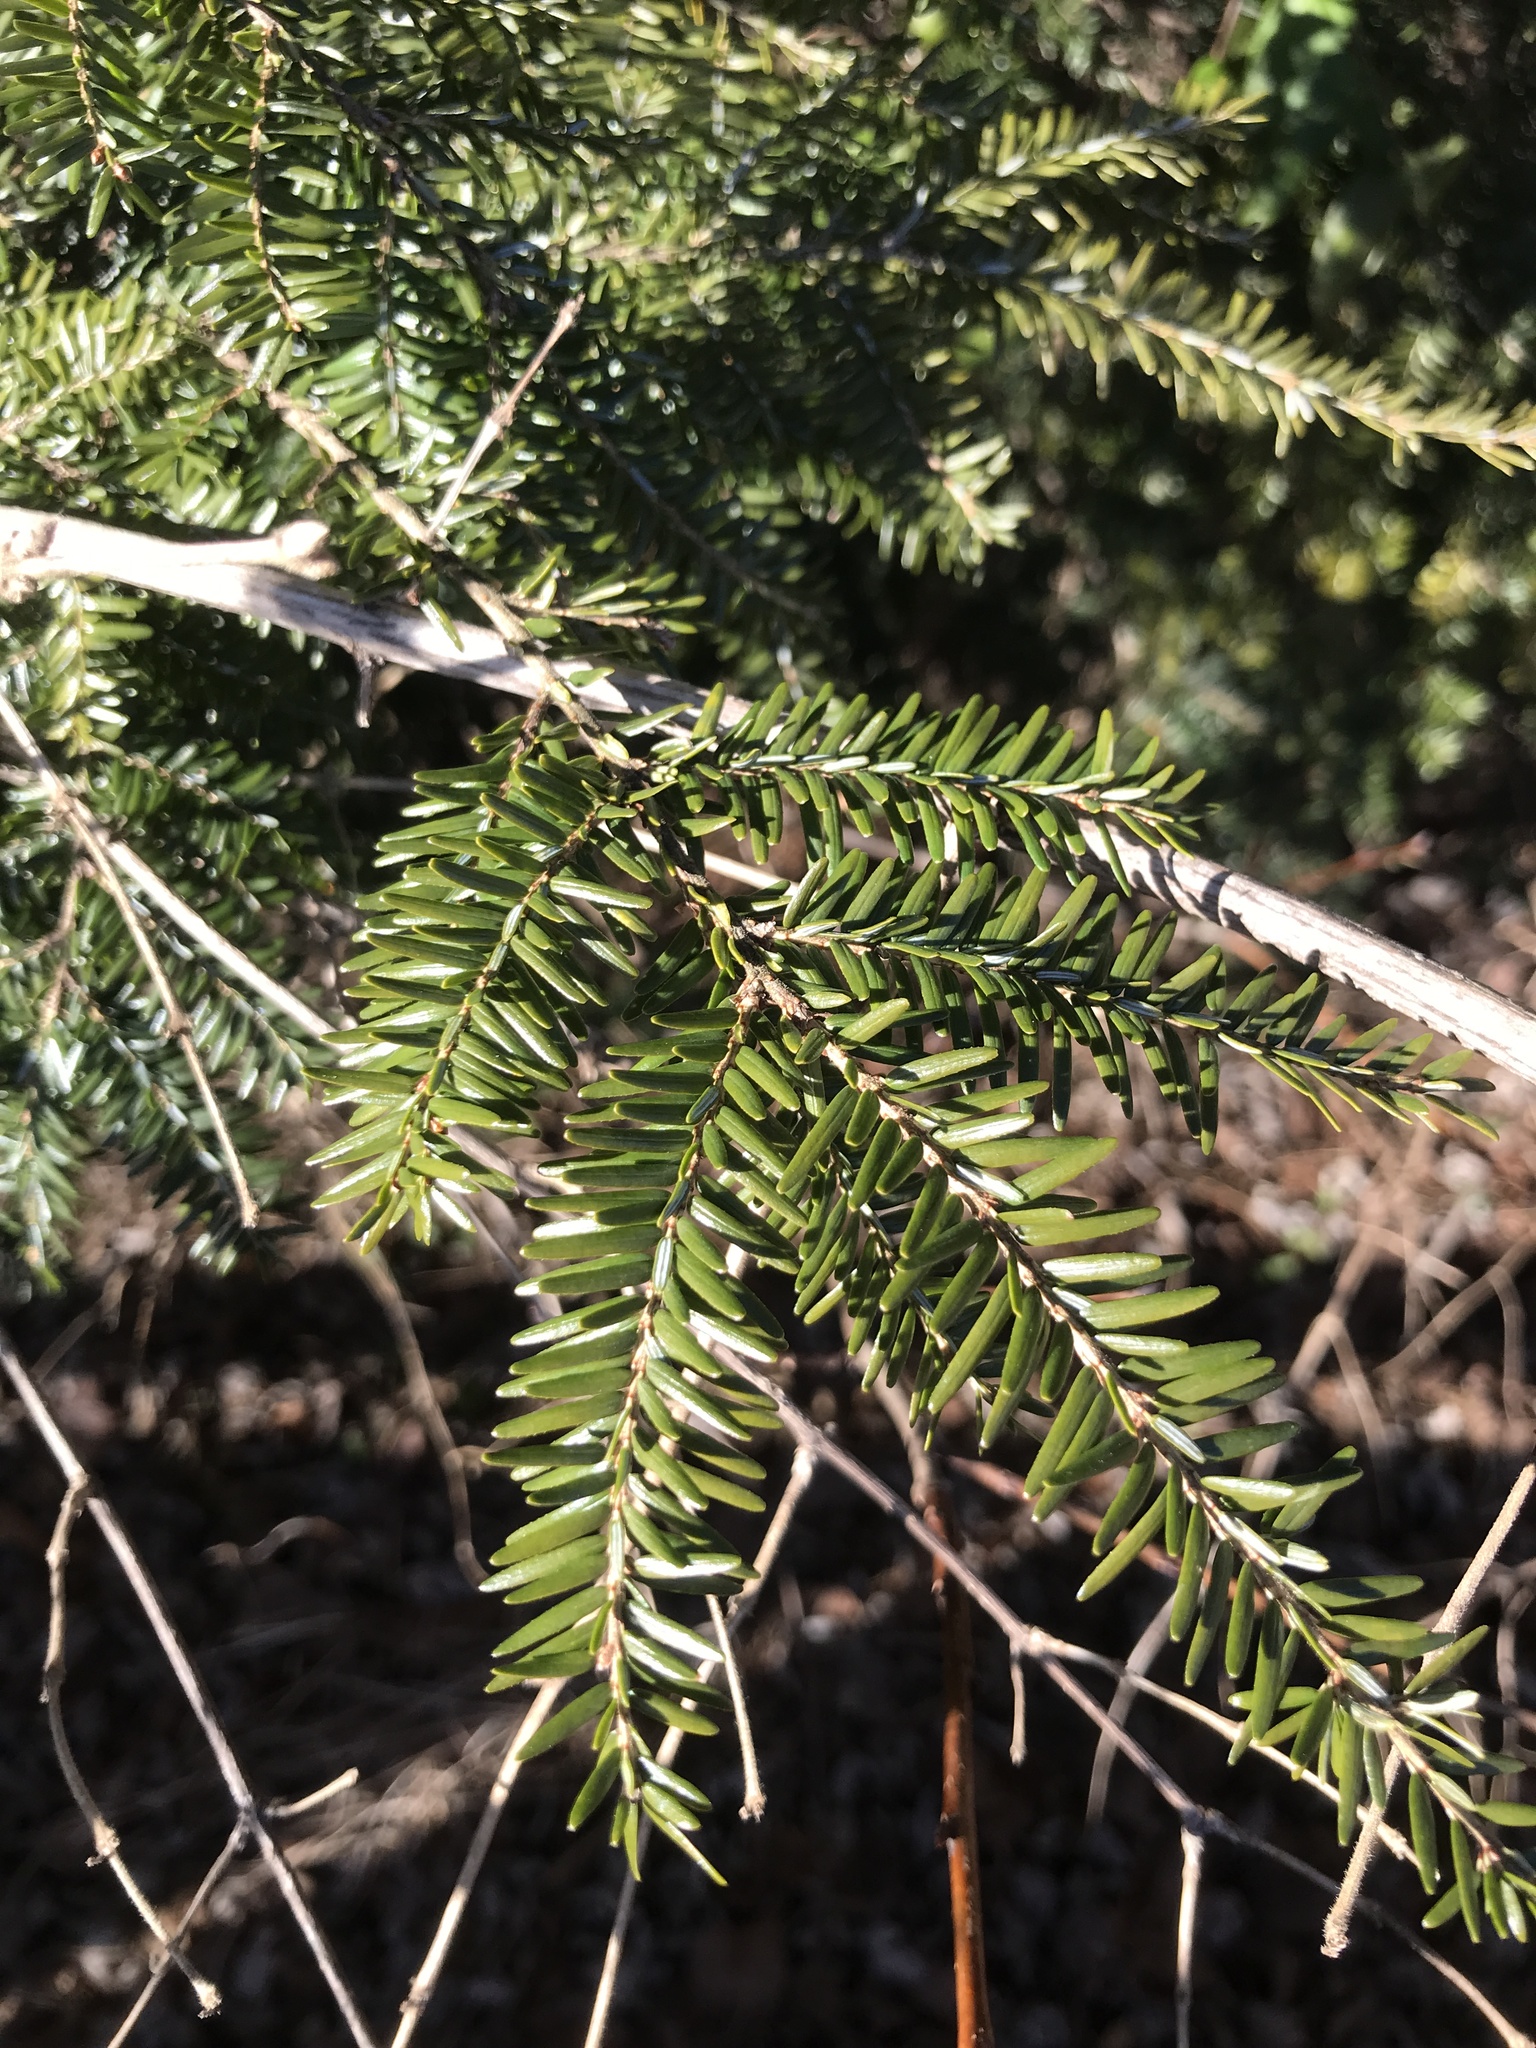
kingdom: Plantae
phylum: Tracheophyta
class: Pinopsida
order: Pinales
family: Pinaceae
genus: Tsuga
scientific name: Tsuga canadensis
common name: Eastern hemlock
